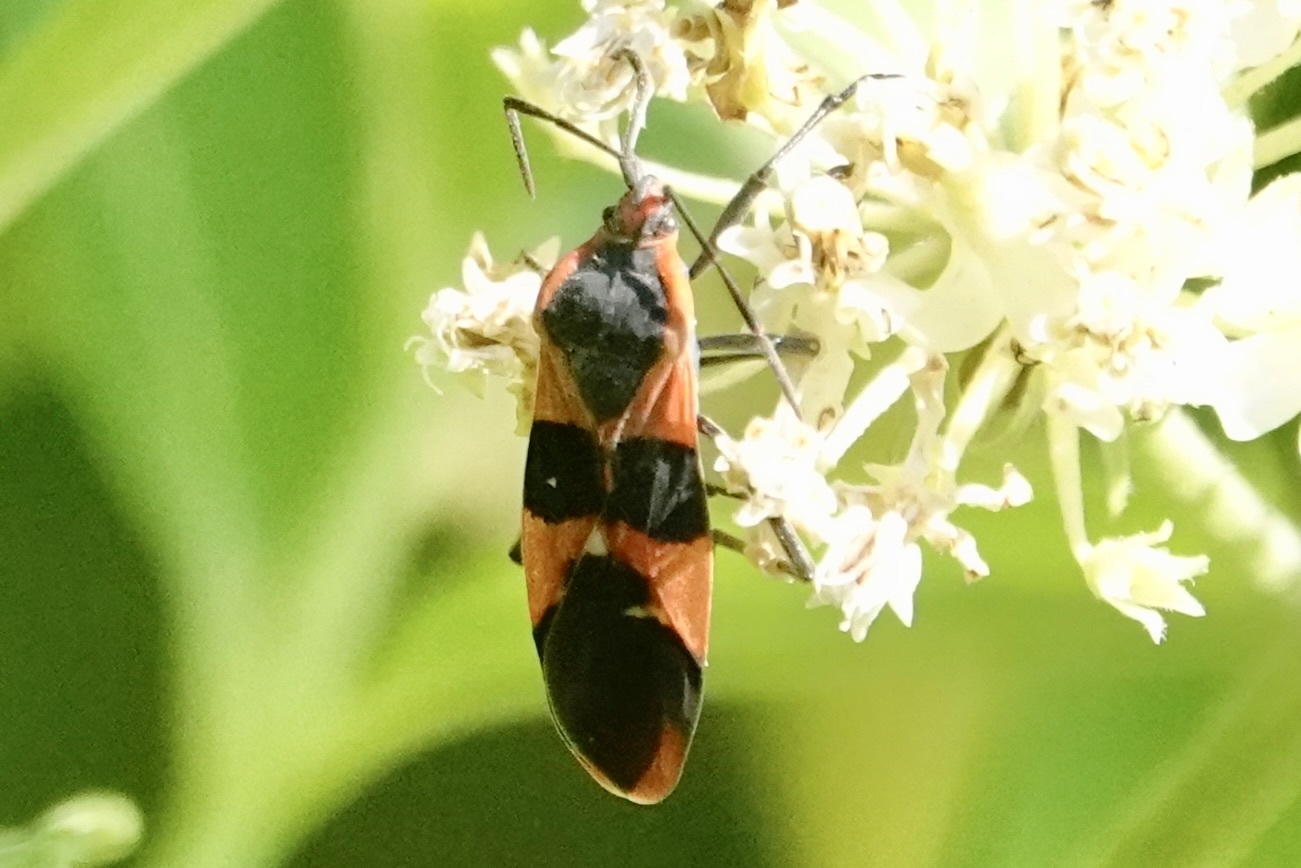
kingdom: Animalia
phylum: Arthropoda
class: Insecta
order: Hemiptera
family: Lygaeidae
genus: Oncopeltus
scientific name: Oncopeltus fasciatus
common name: Large milkweed bug
